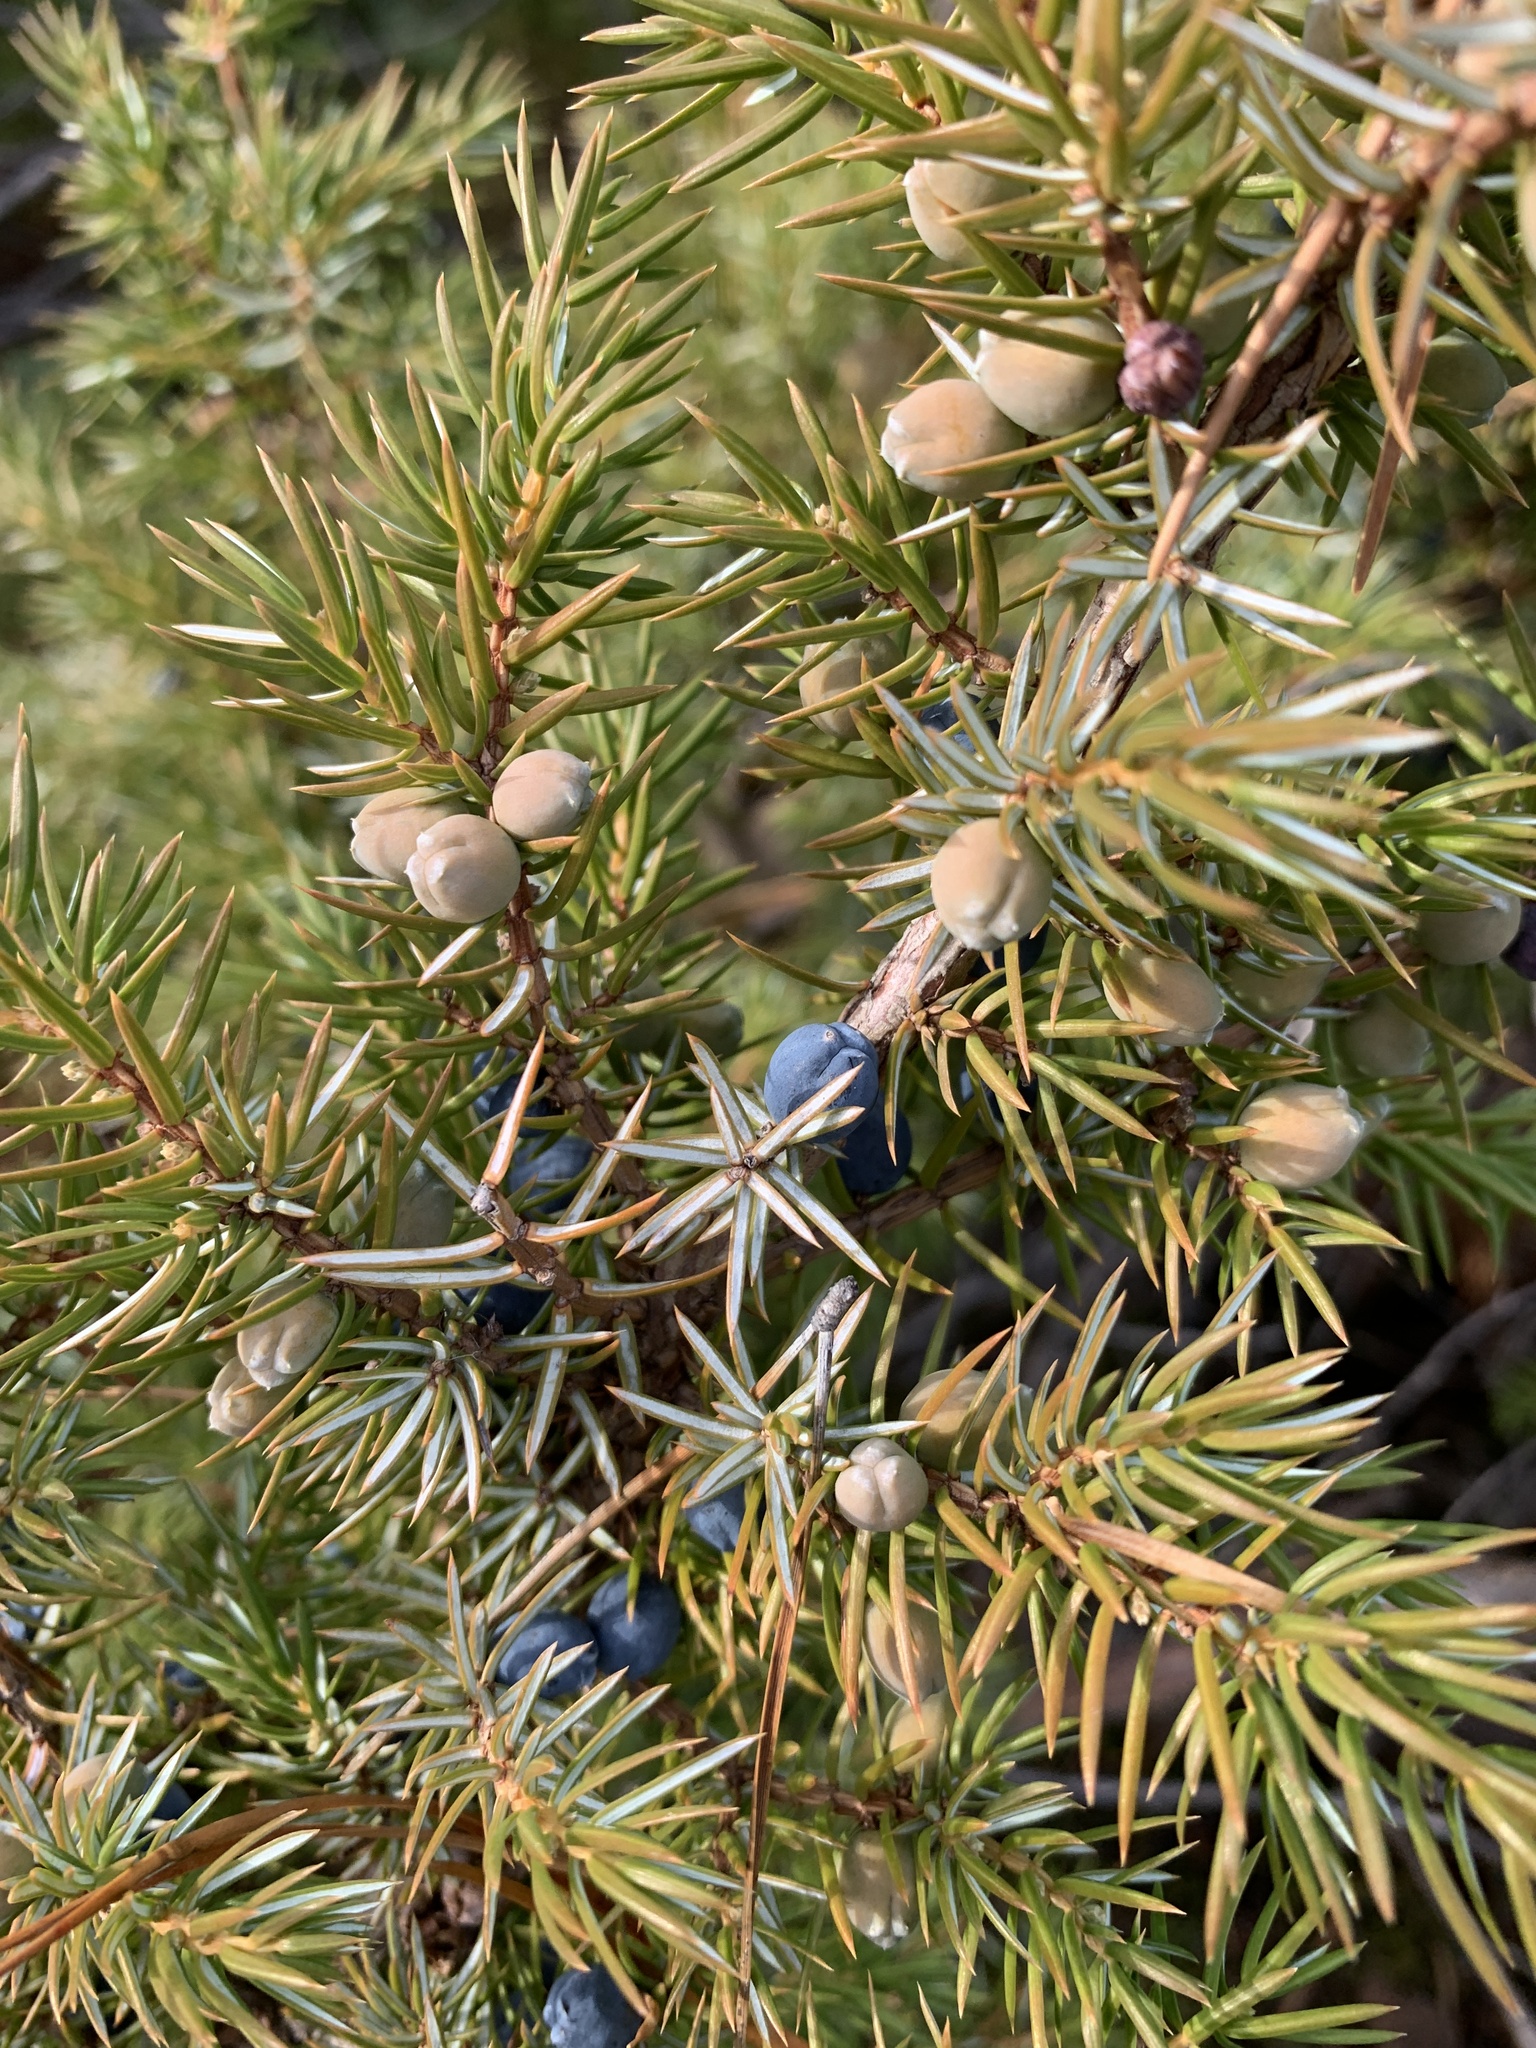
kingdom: Plantae
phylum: Tracheophyta
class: Pinopsida
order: Pinales
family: Cupressaceae
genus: Juniperus
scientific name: Juniperus communis
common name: Common juniper
